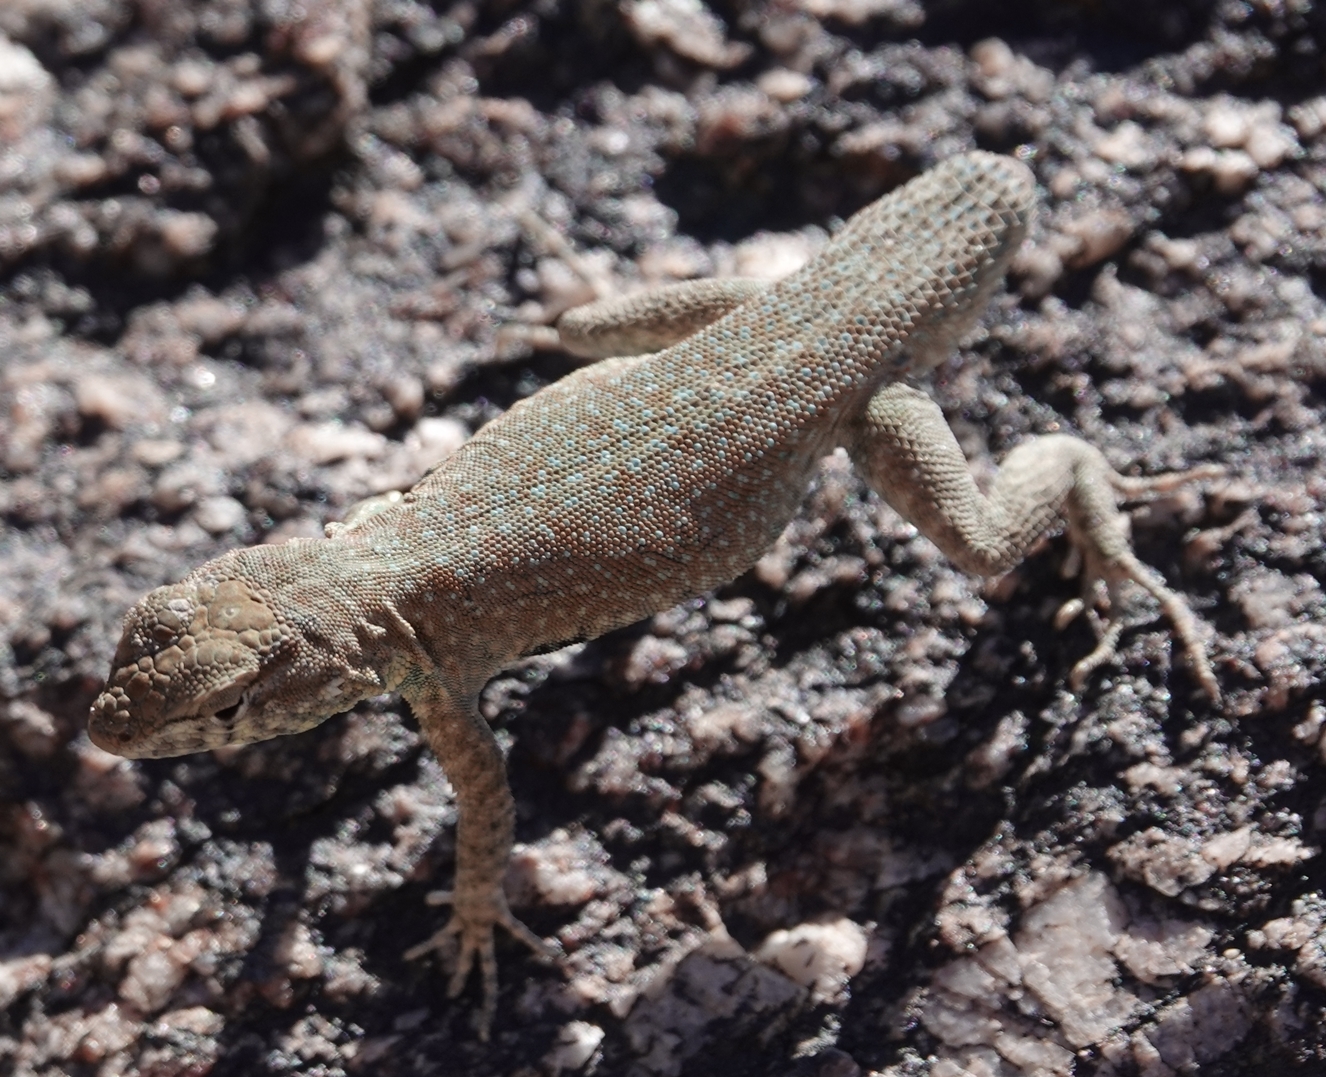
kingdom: Animalia
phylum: Chordata
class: Squamata
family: Phrynosomatidae
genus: Uta
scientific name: Uta stansburiana
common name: Side-blotched lizard
